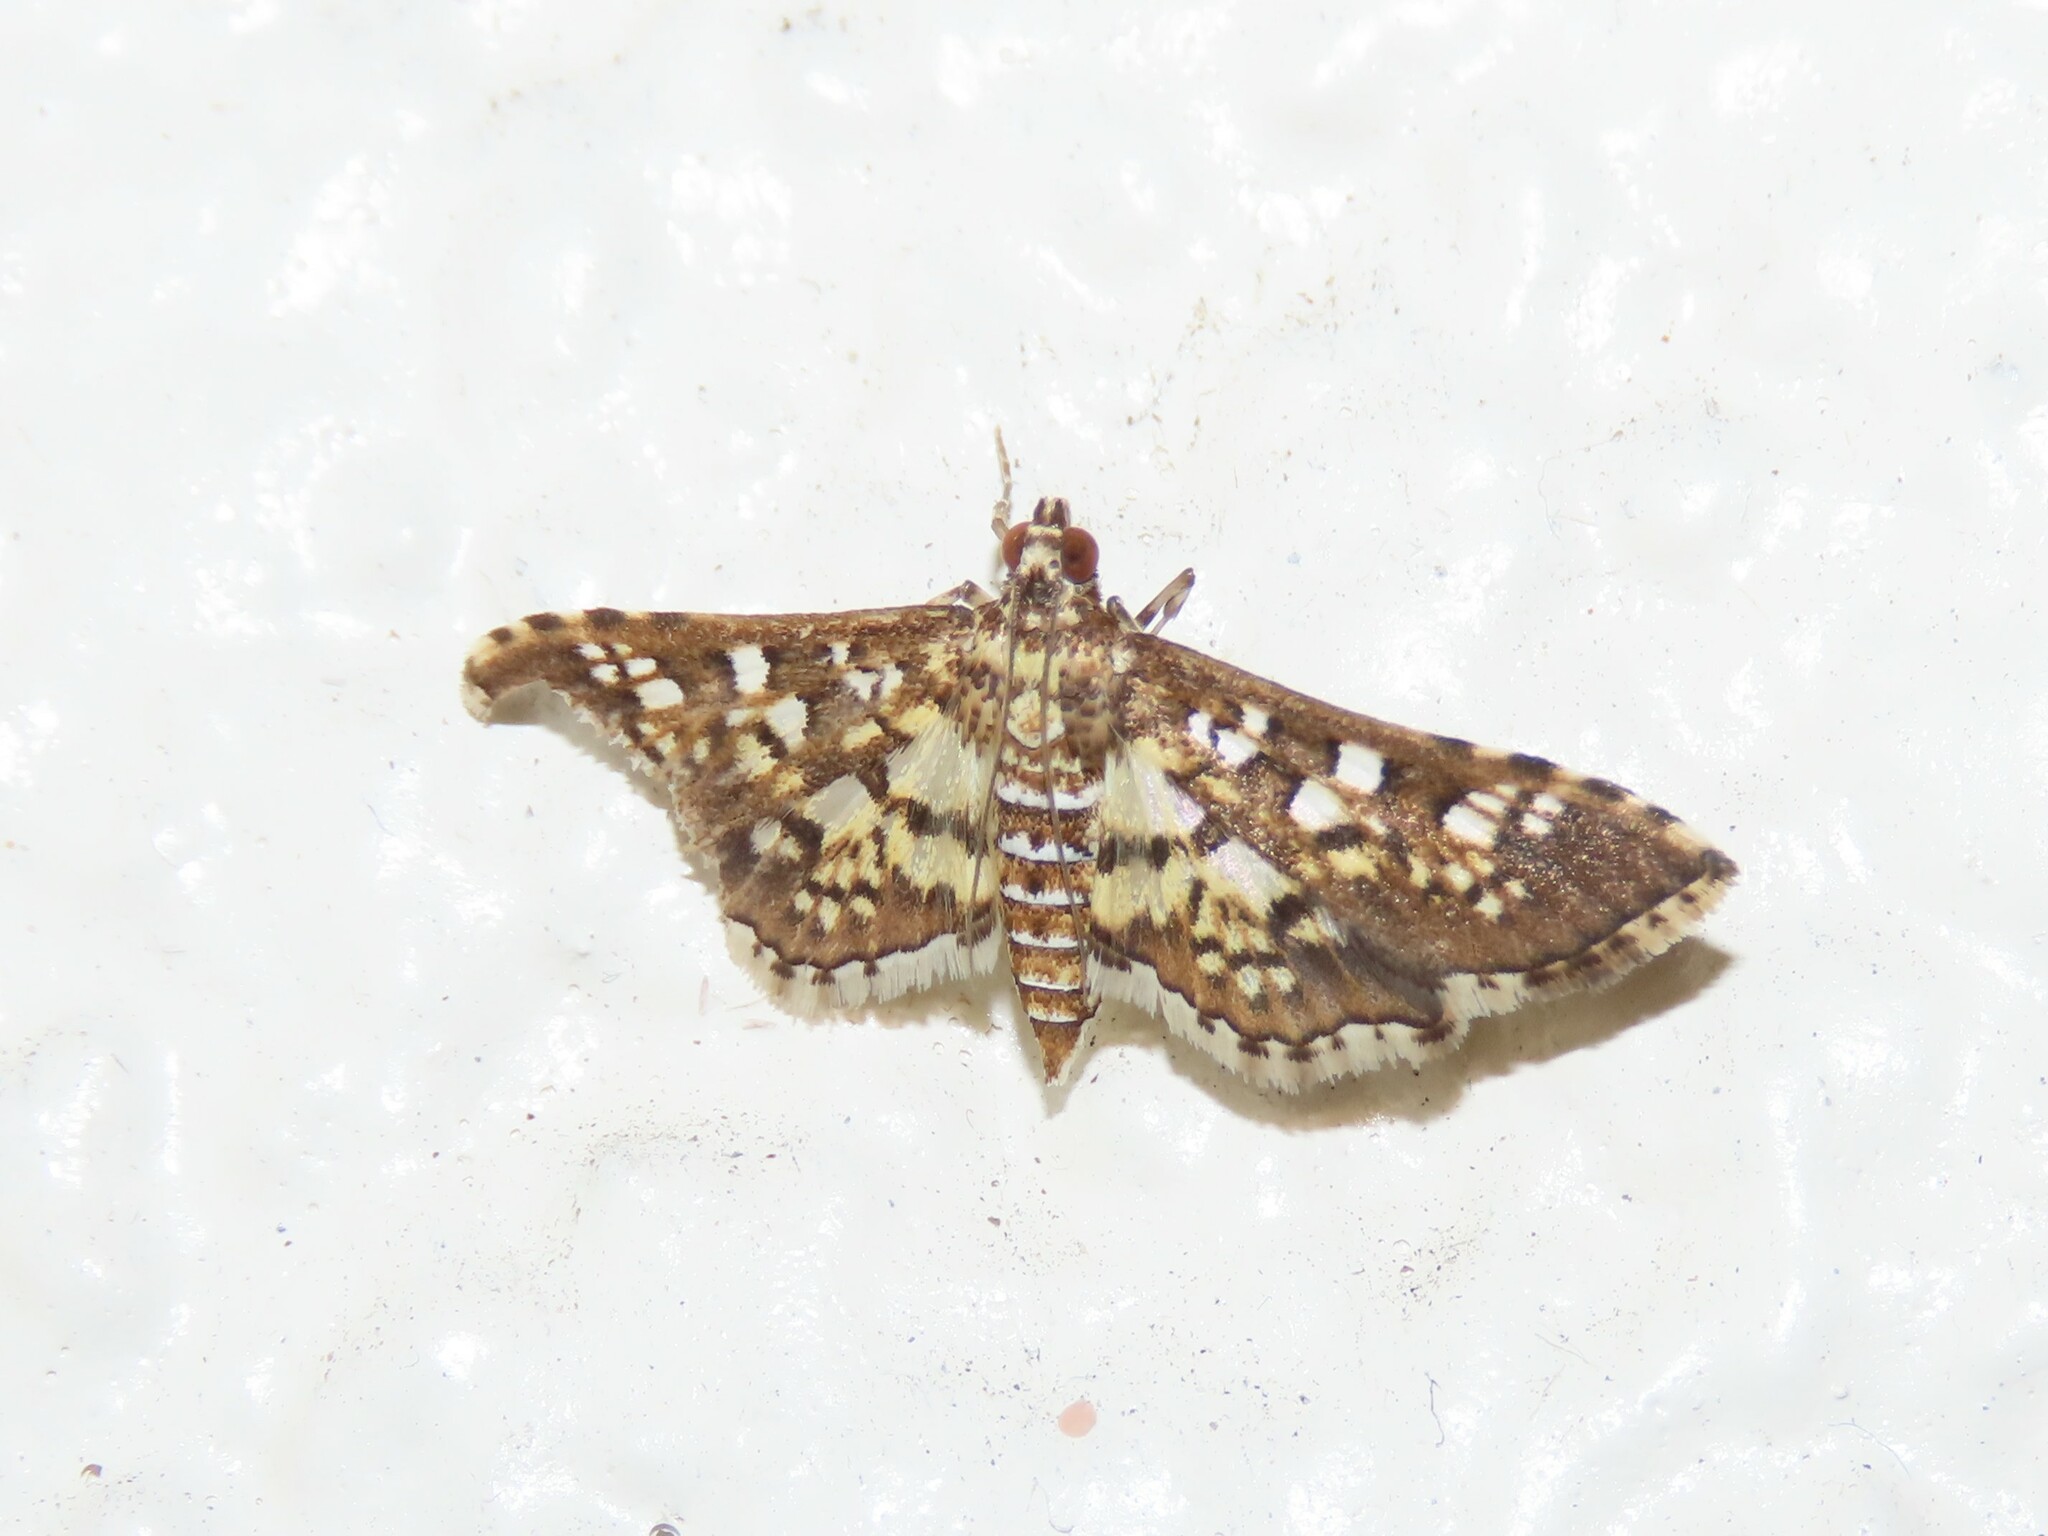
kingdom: Animalia
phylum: Arthropoda
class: Insecta
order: Lepidoptera
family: Crambidae
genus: Samea
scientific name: Samea ecclesialis
